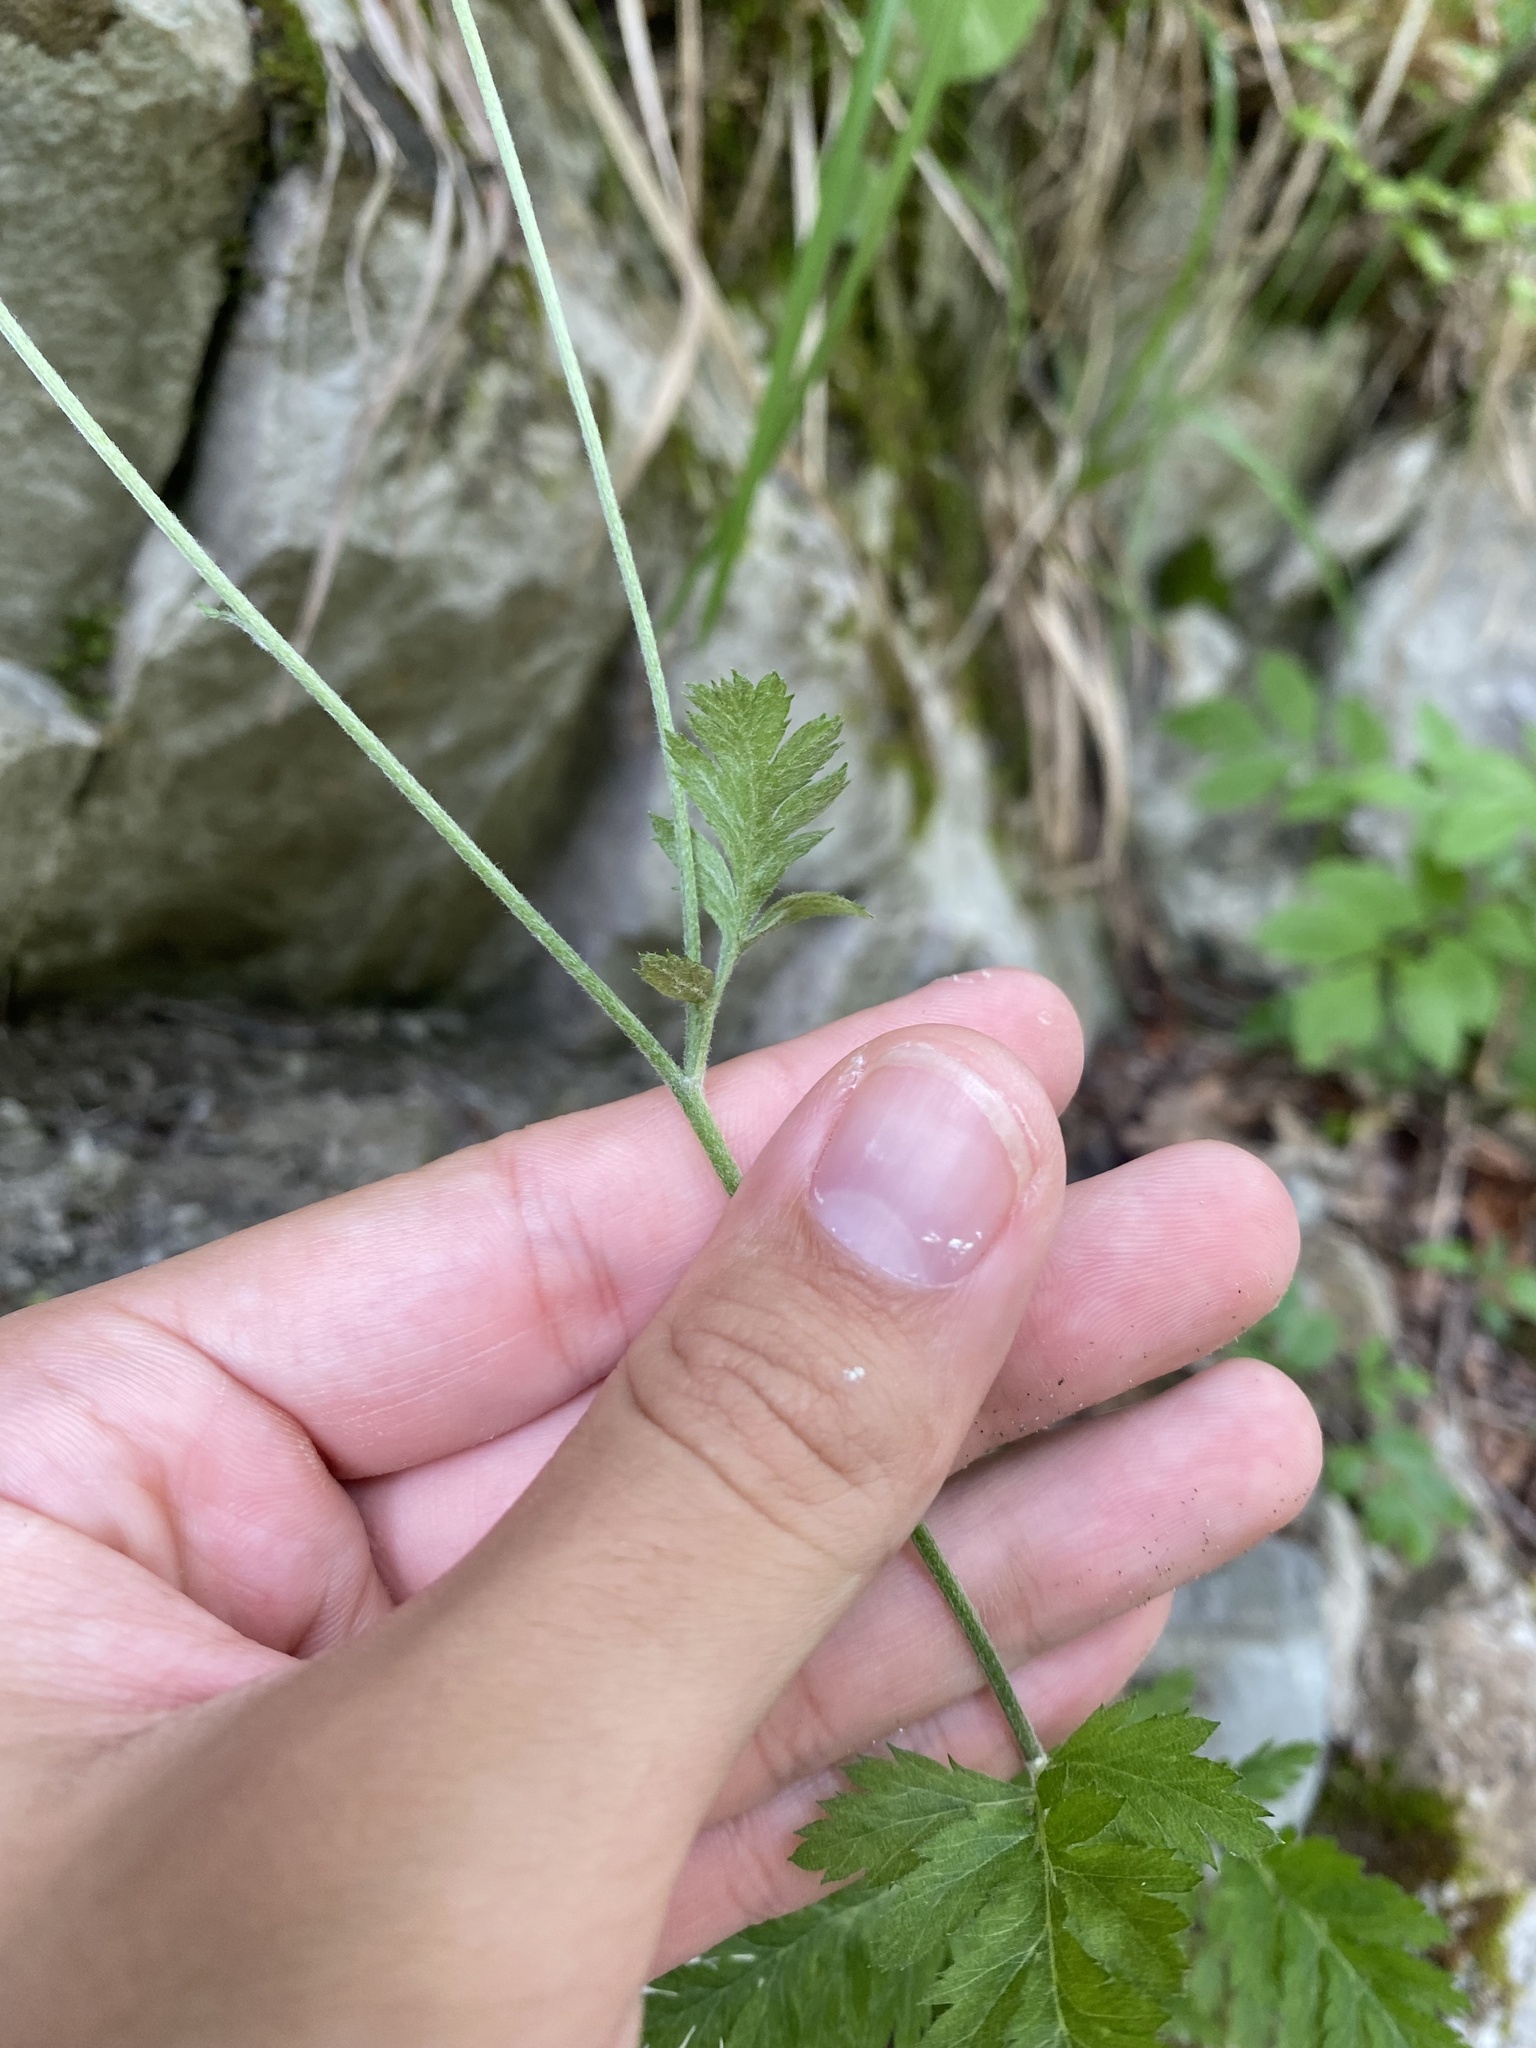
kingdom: Plantae
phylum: Tracheophyta
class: Magnoliopsida
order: Asterales
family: Asteraceae
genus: Tanacetum
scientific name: Tanacetum poteriifolium
